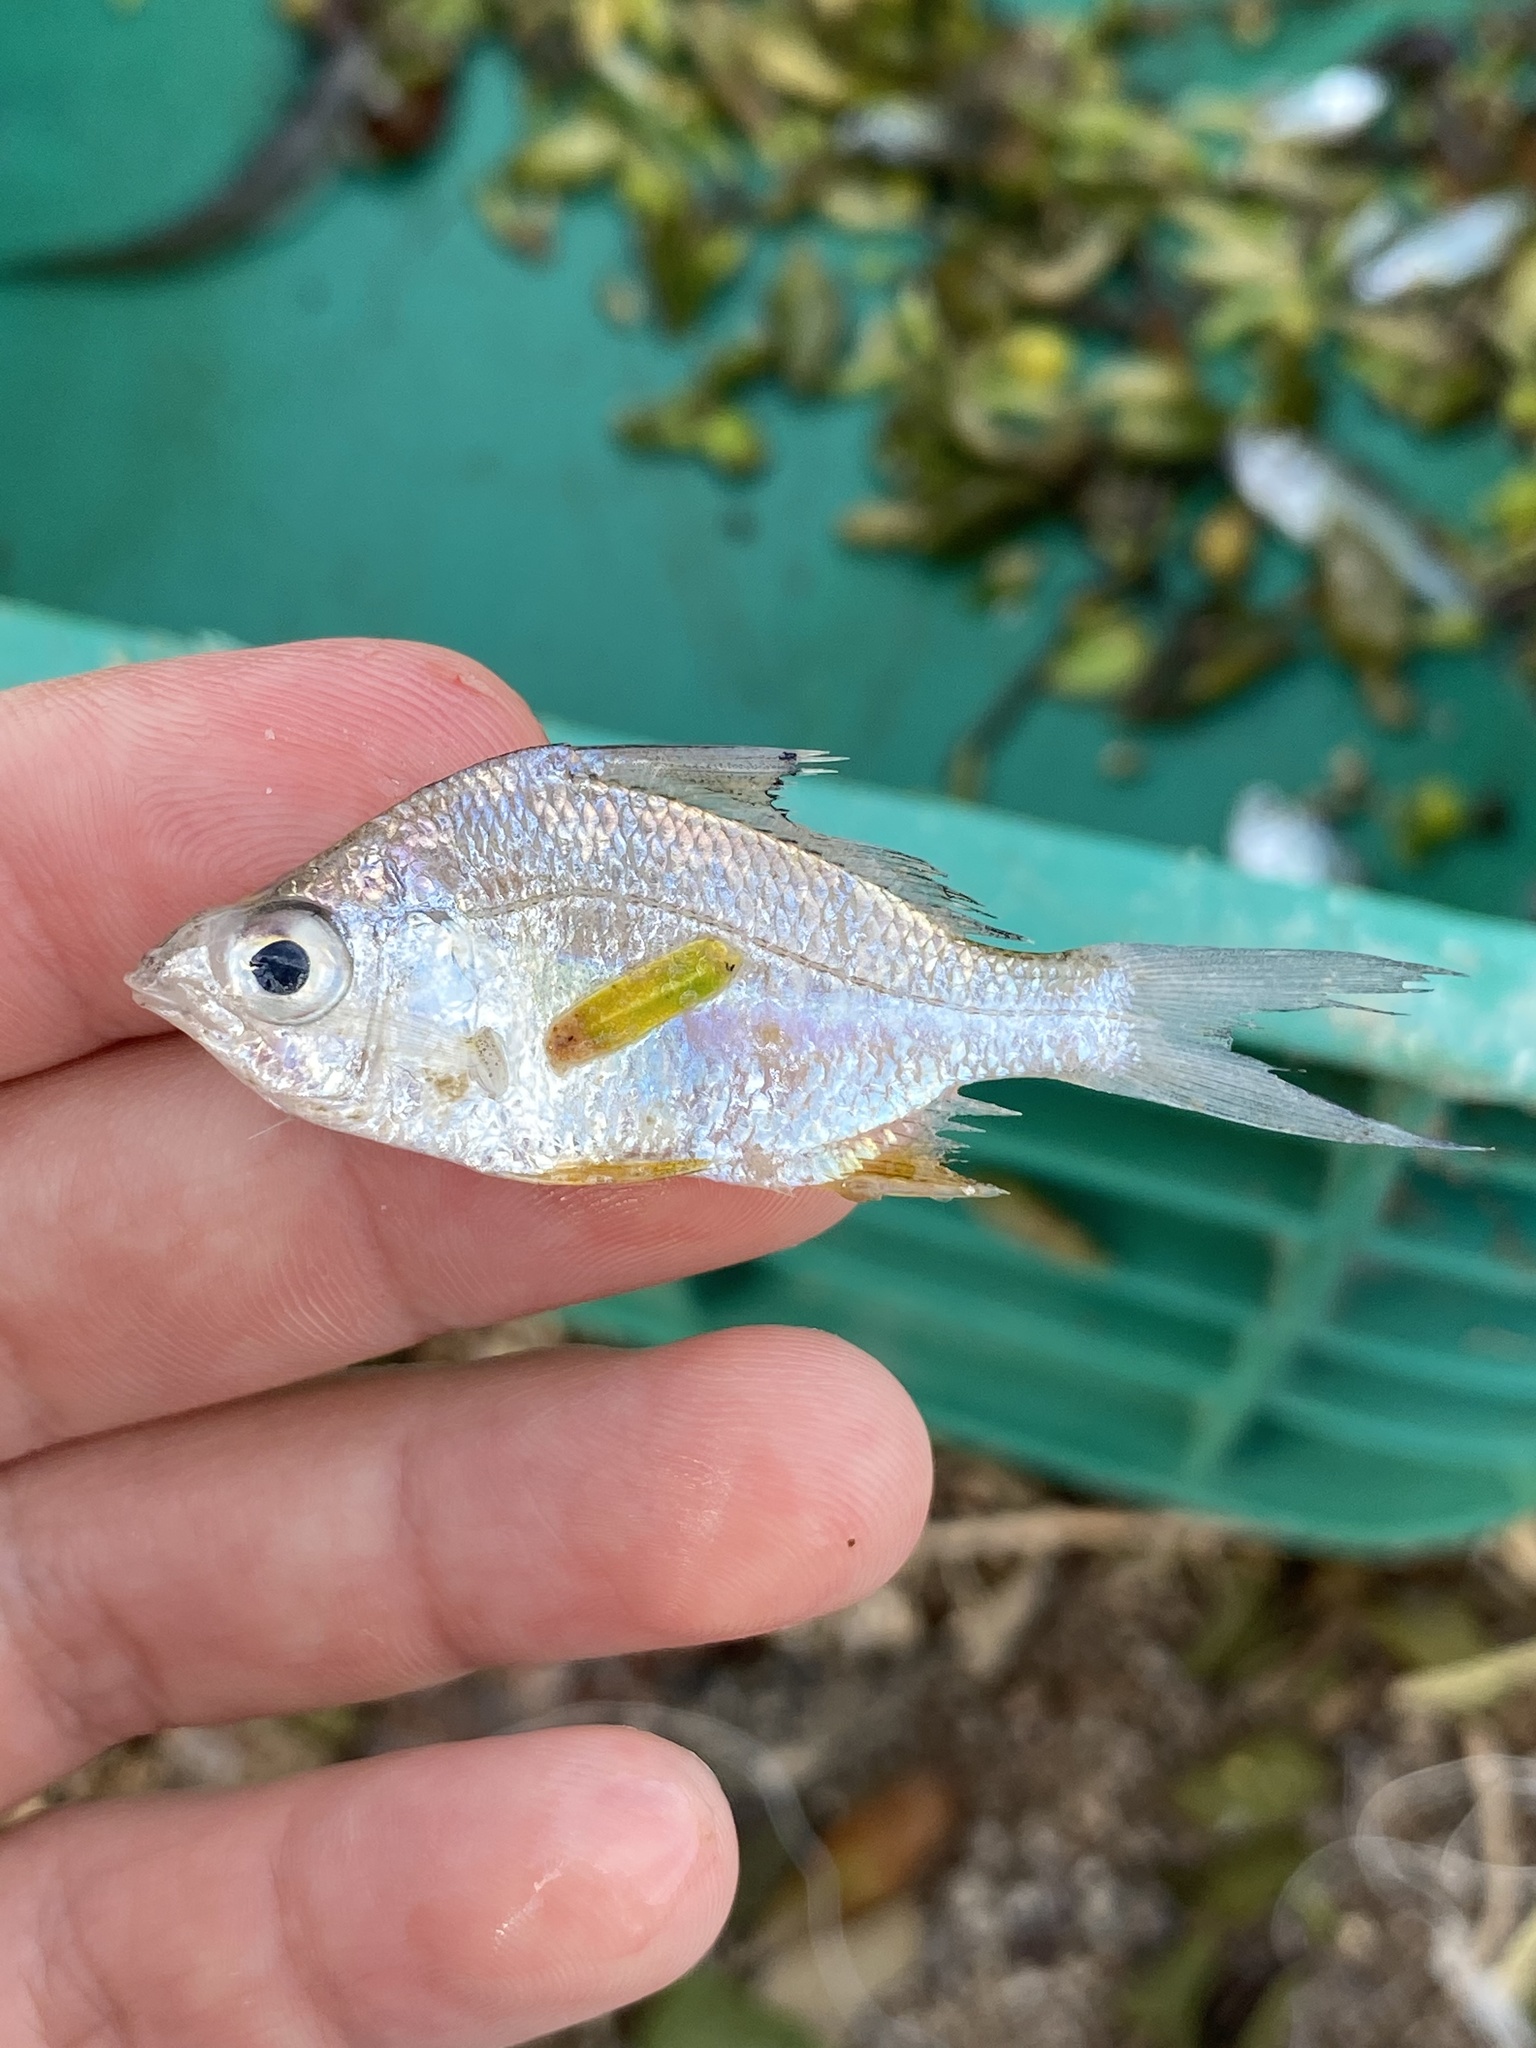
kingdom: Animalia
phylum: Chordata
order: Perciformes
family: Gerreidae
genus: Diapterus
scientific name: Diapterus brevirostris
